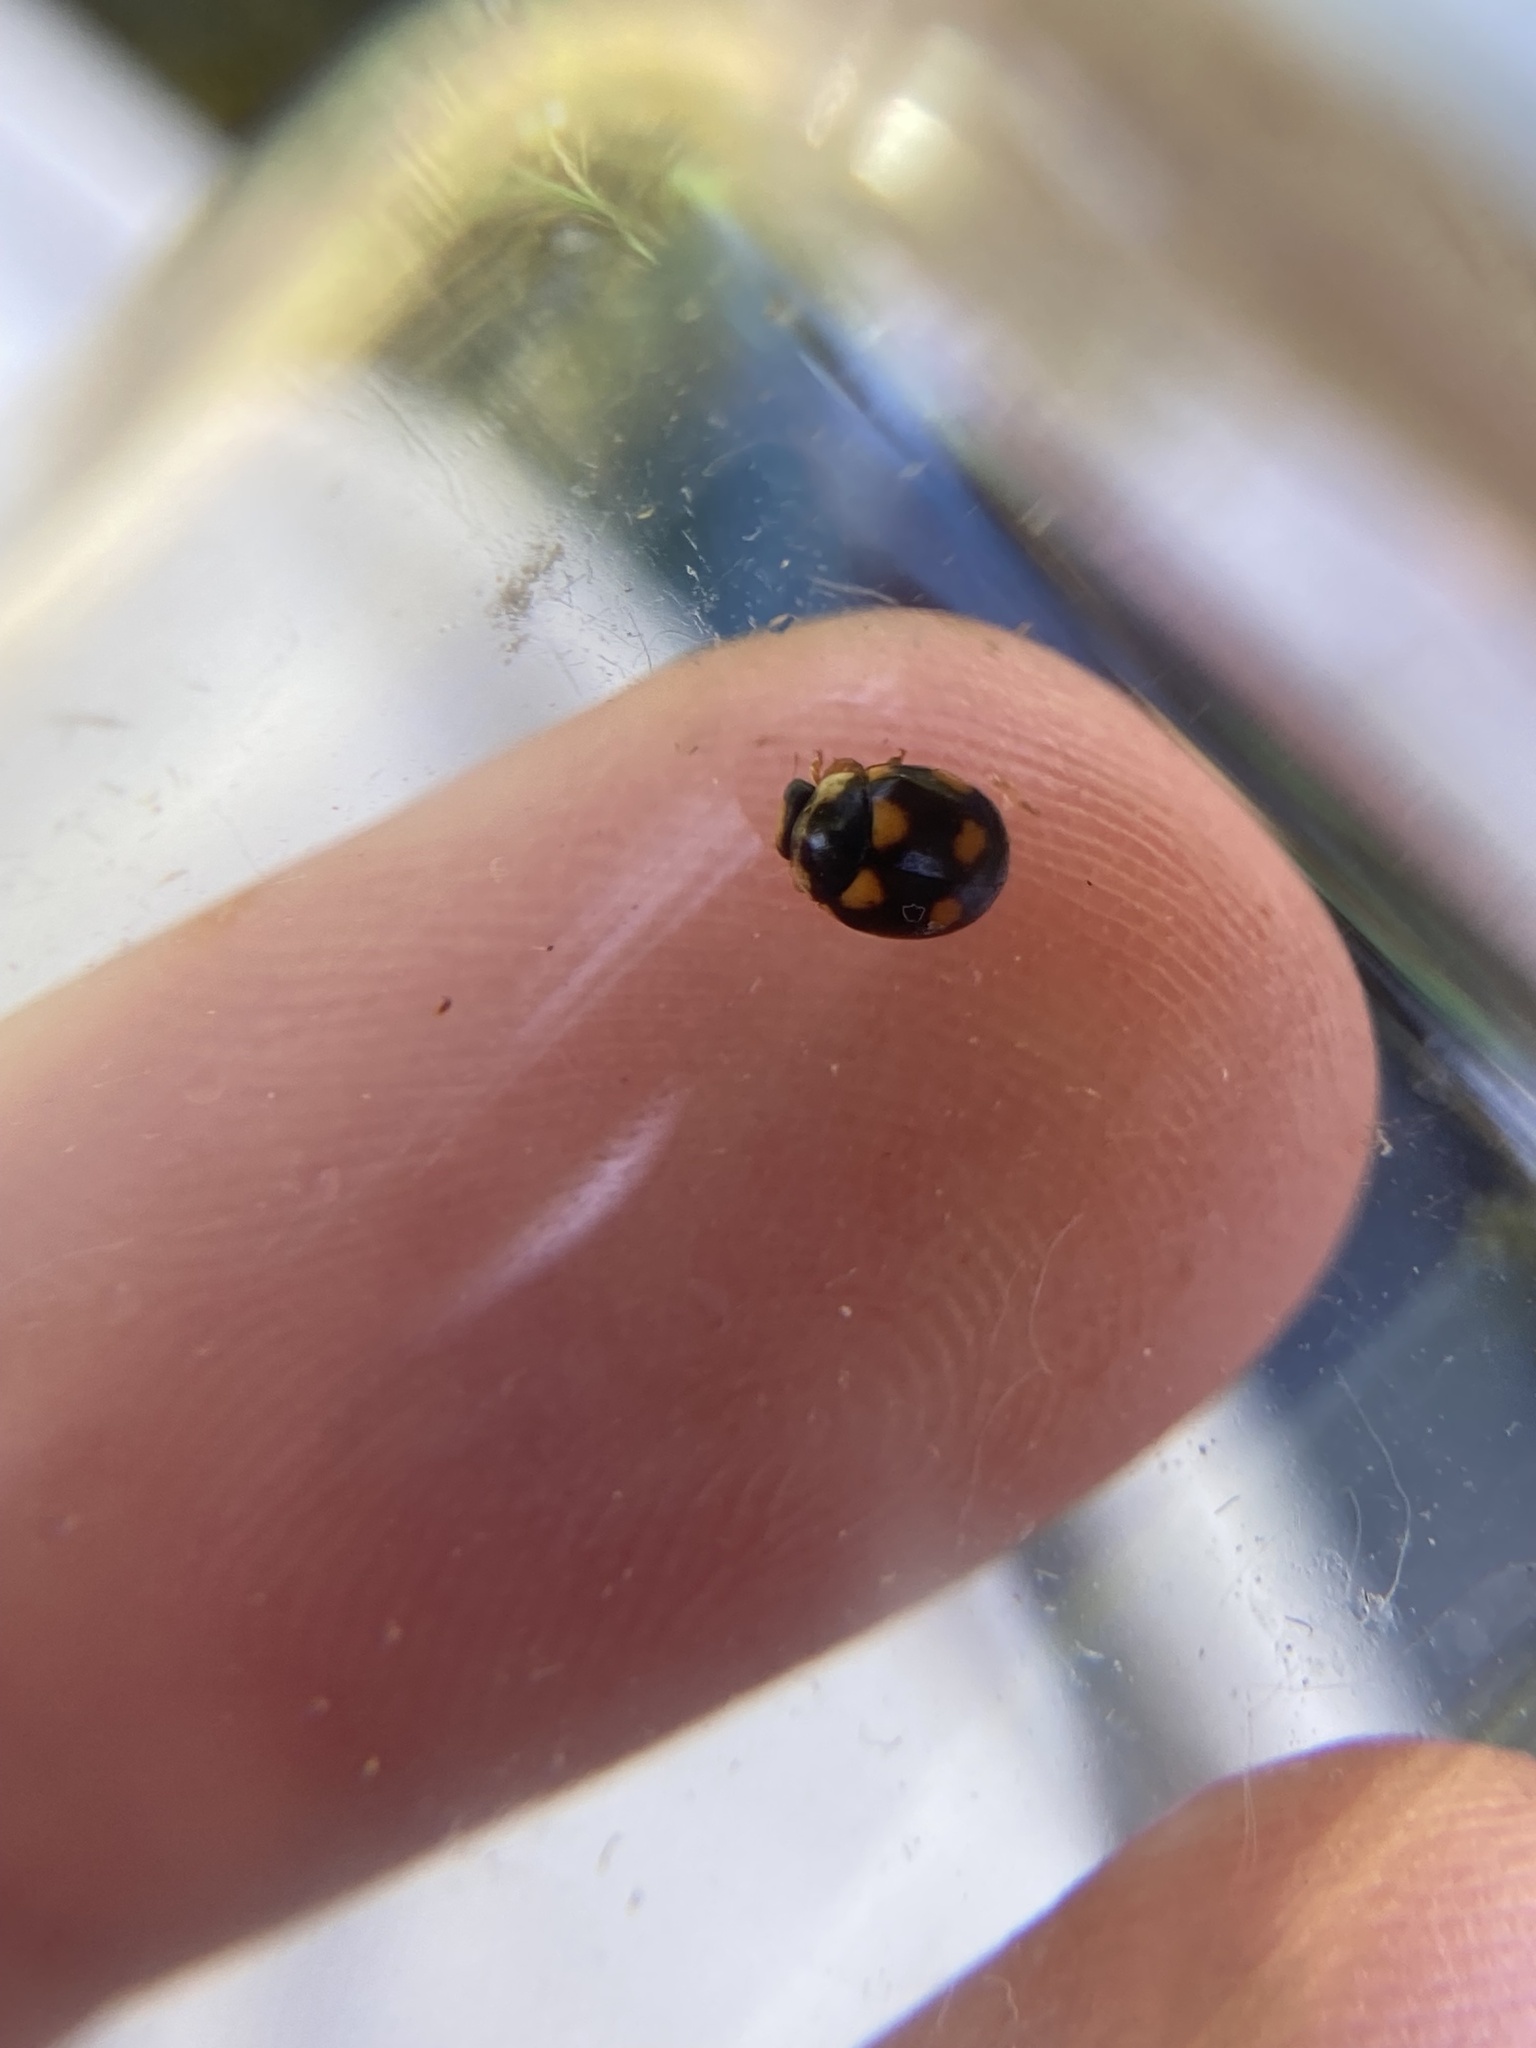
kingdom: Animalia
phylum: Arthropoda
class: Insecta
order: Coleoptera
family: Coccinellidae
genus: Brachiacantha
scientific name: Brachiacantha ursina
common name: Ursine spurleg lady beetle
